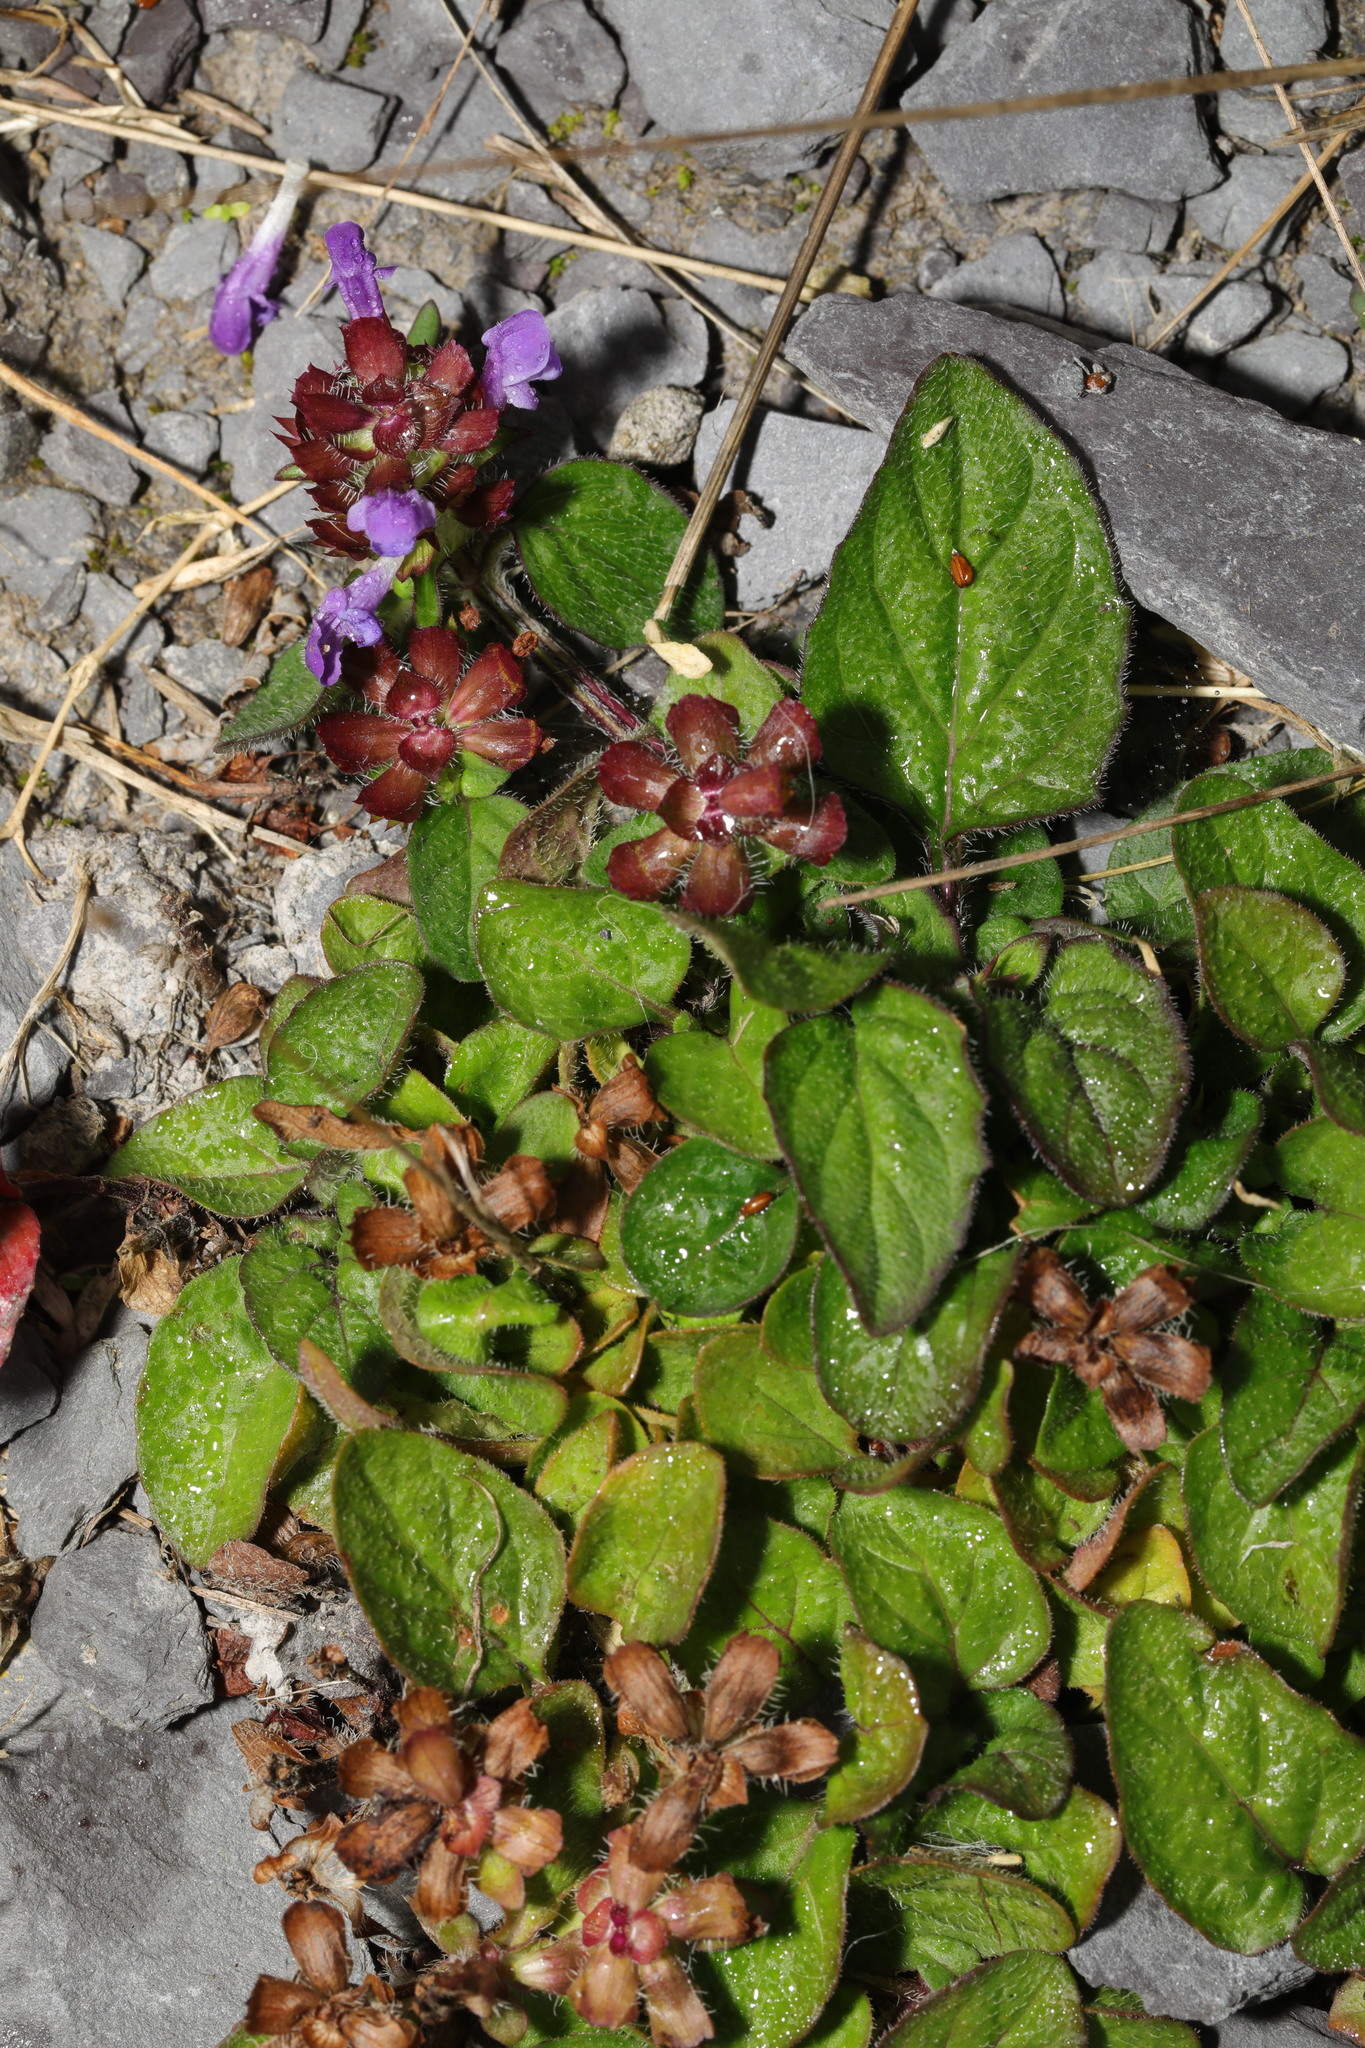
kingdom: Plantae
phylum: Tracheophyta
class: Magnoliopsida
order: Lamiales
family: Lamiaceae
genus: Prunella
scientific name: Prunella vulgaris
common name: Heal-all
